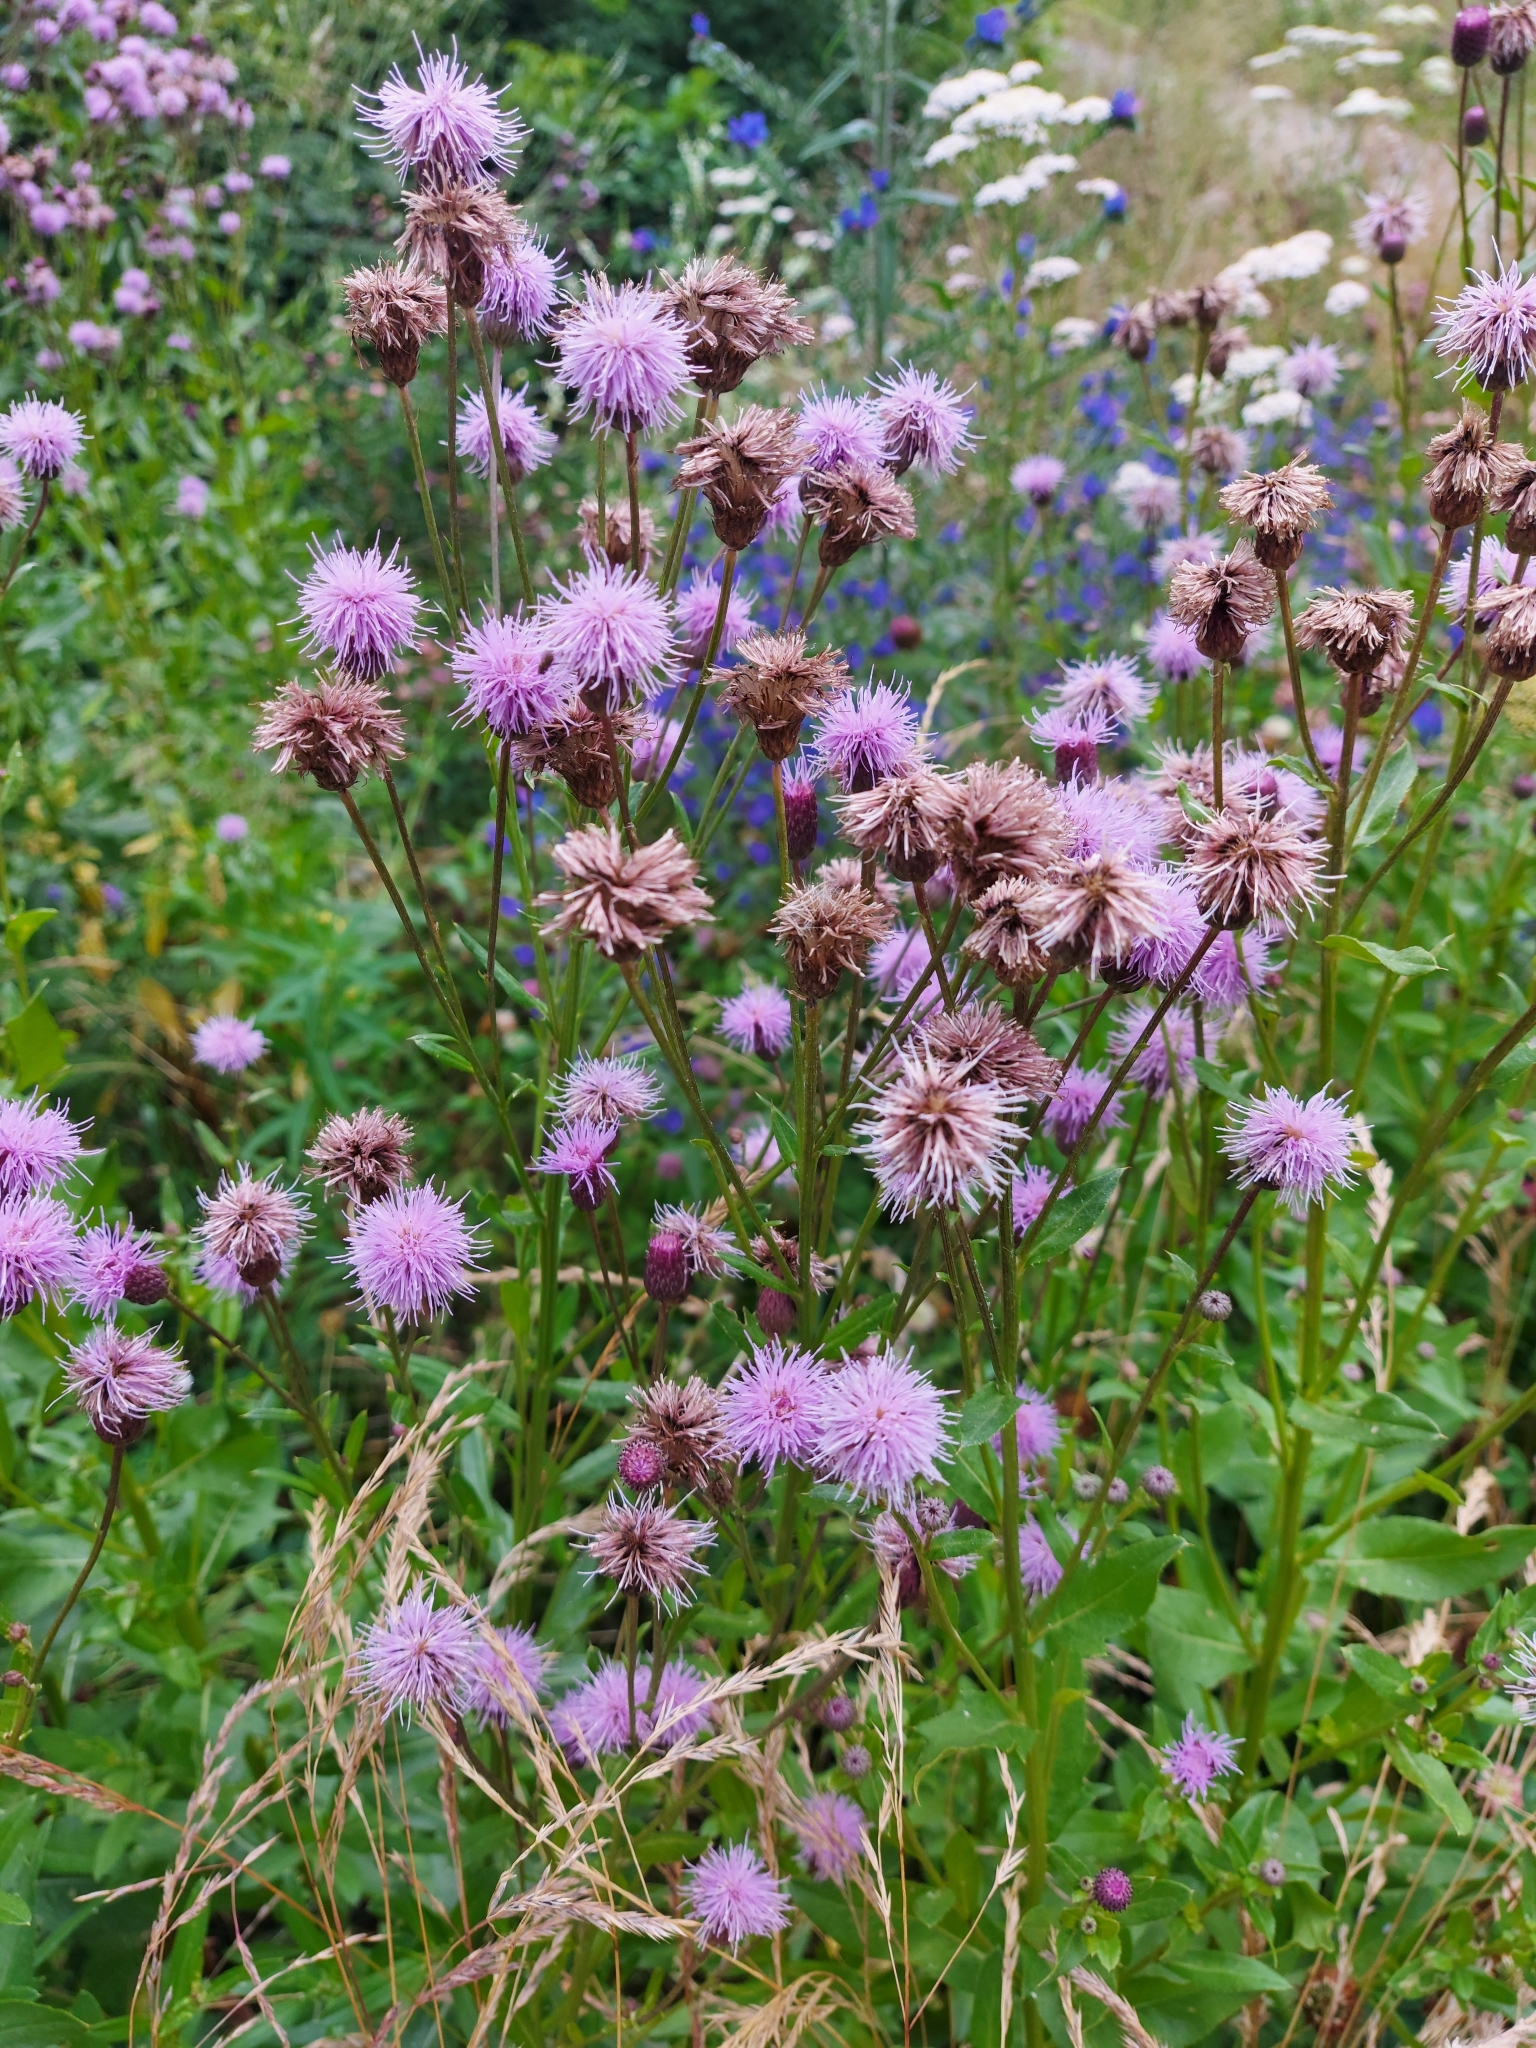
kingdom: Plantae
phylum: Tracheophyta
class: Magnoliopsida
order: Asterales
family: Asteraceae
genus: Cirsium
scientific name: Cirsium arvense
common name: Creeping thistle
